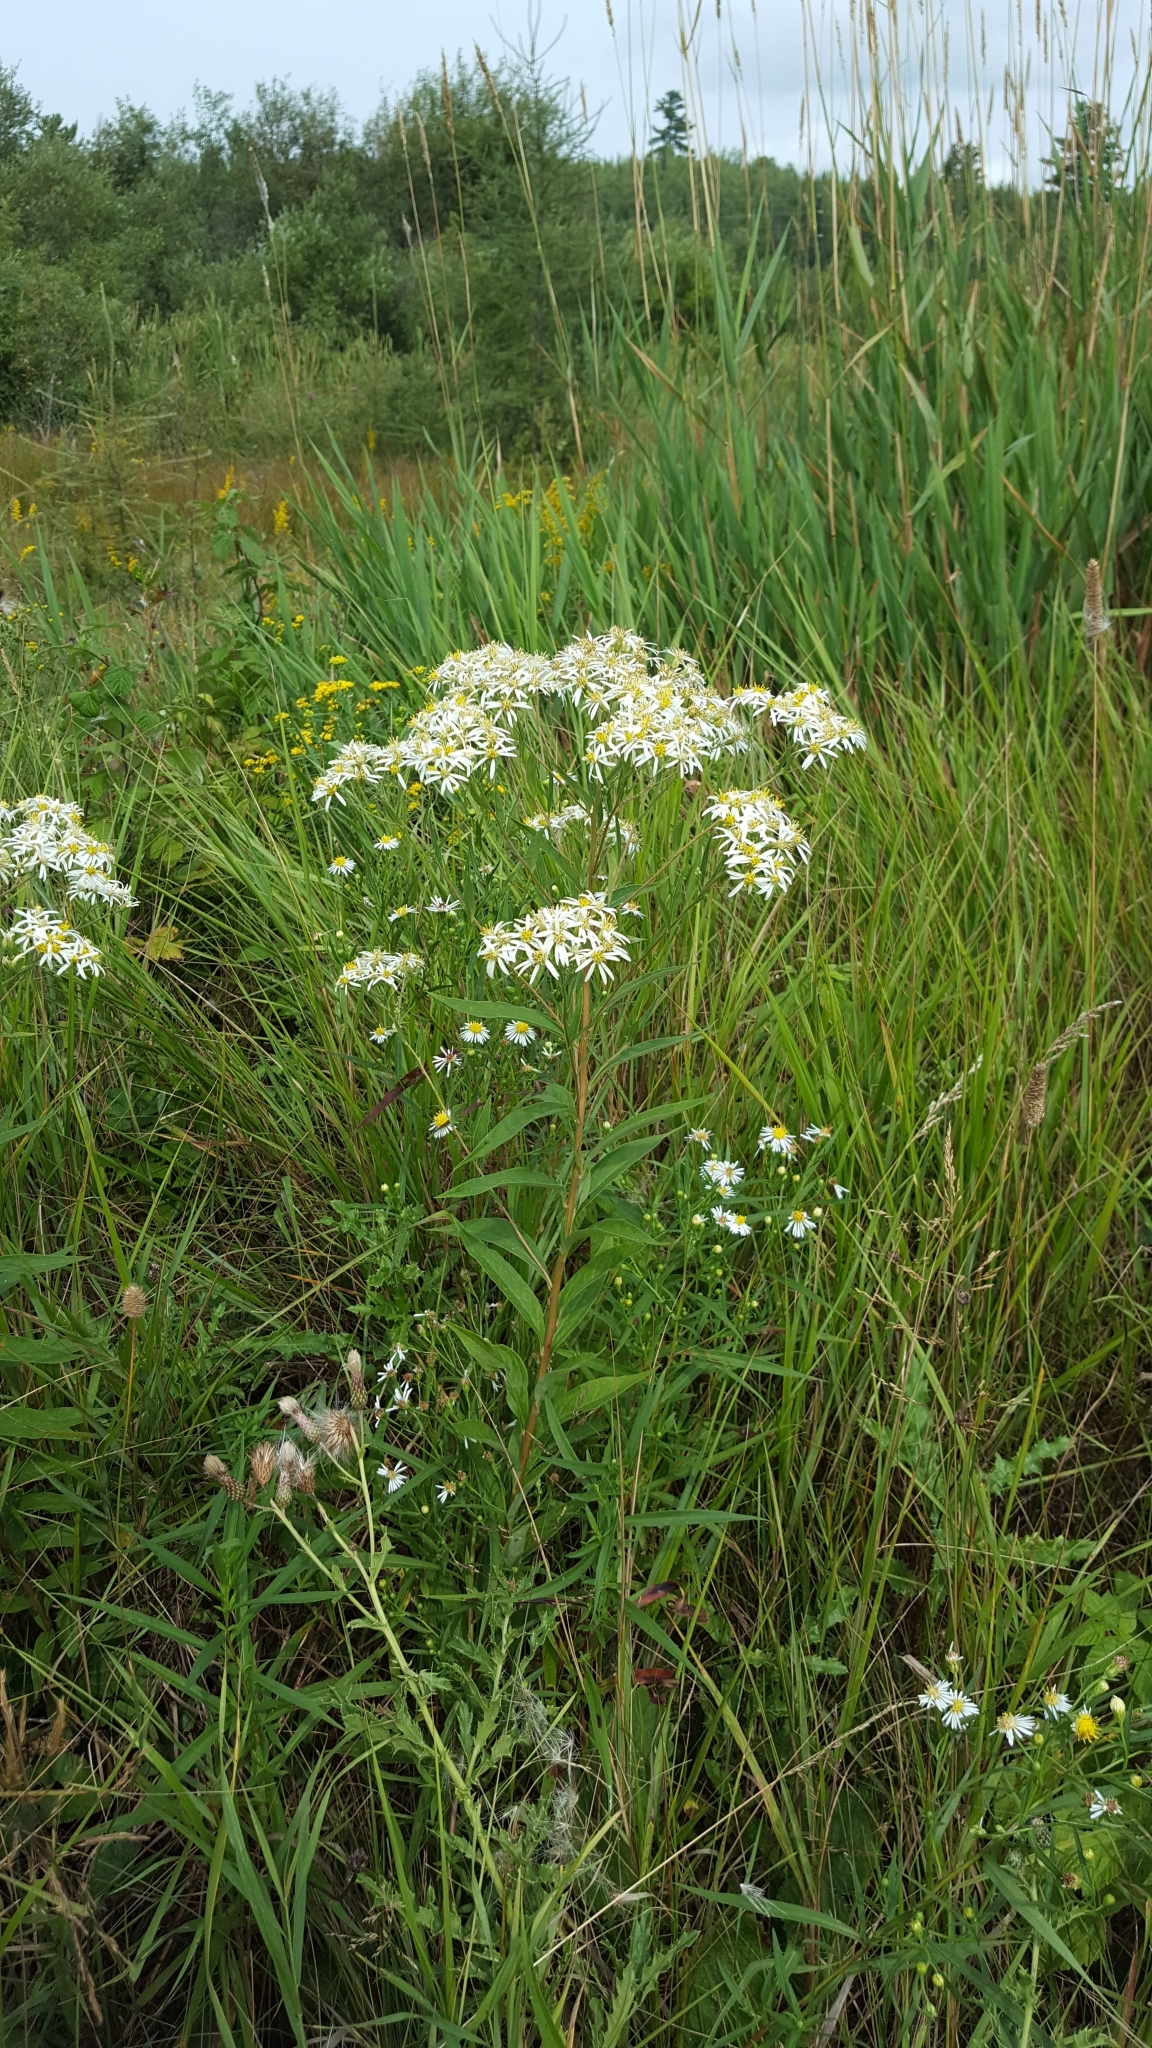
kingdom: Plantae
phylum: Tracheophyta
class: Magnoliopsida
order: Asterales
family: Asteraceae
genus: Doellingeria
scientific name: Doellingeria umbellata
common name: Flat-top white aster
